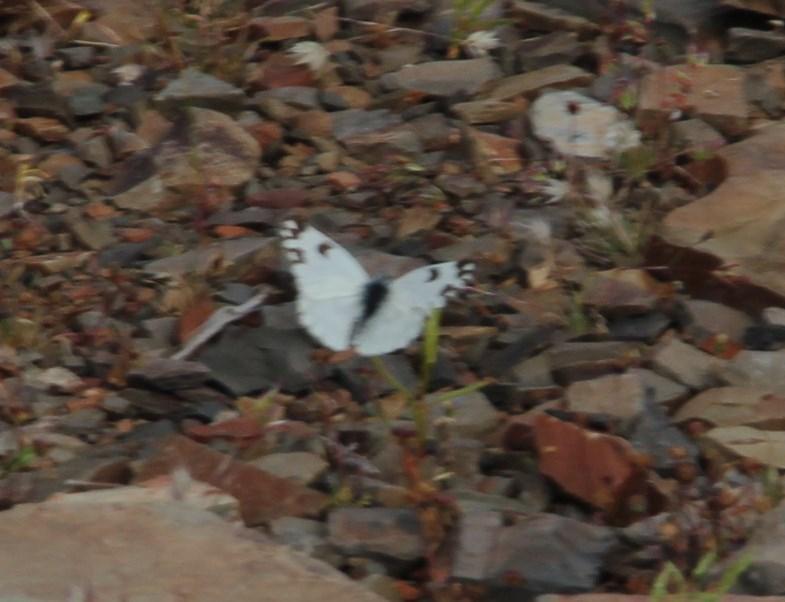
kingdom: Animalia
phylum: Arthropoda
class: Insecta
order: Lepidoptera
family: Pieridae
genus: Pontia
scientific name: Pontia helice
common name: Meadow white
